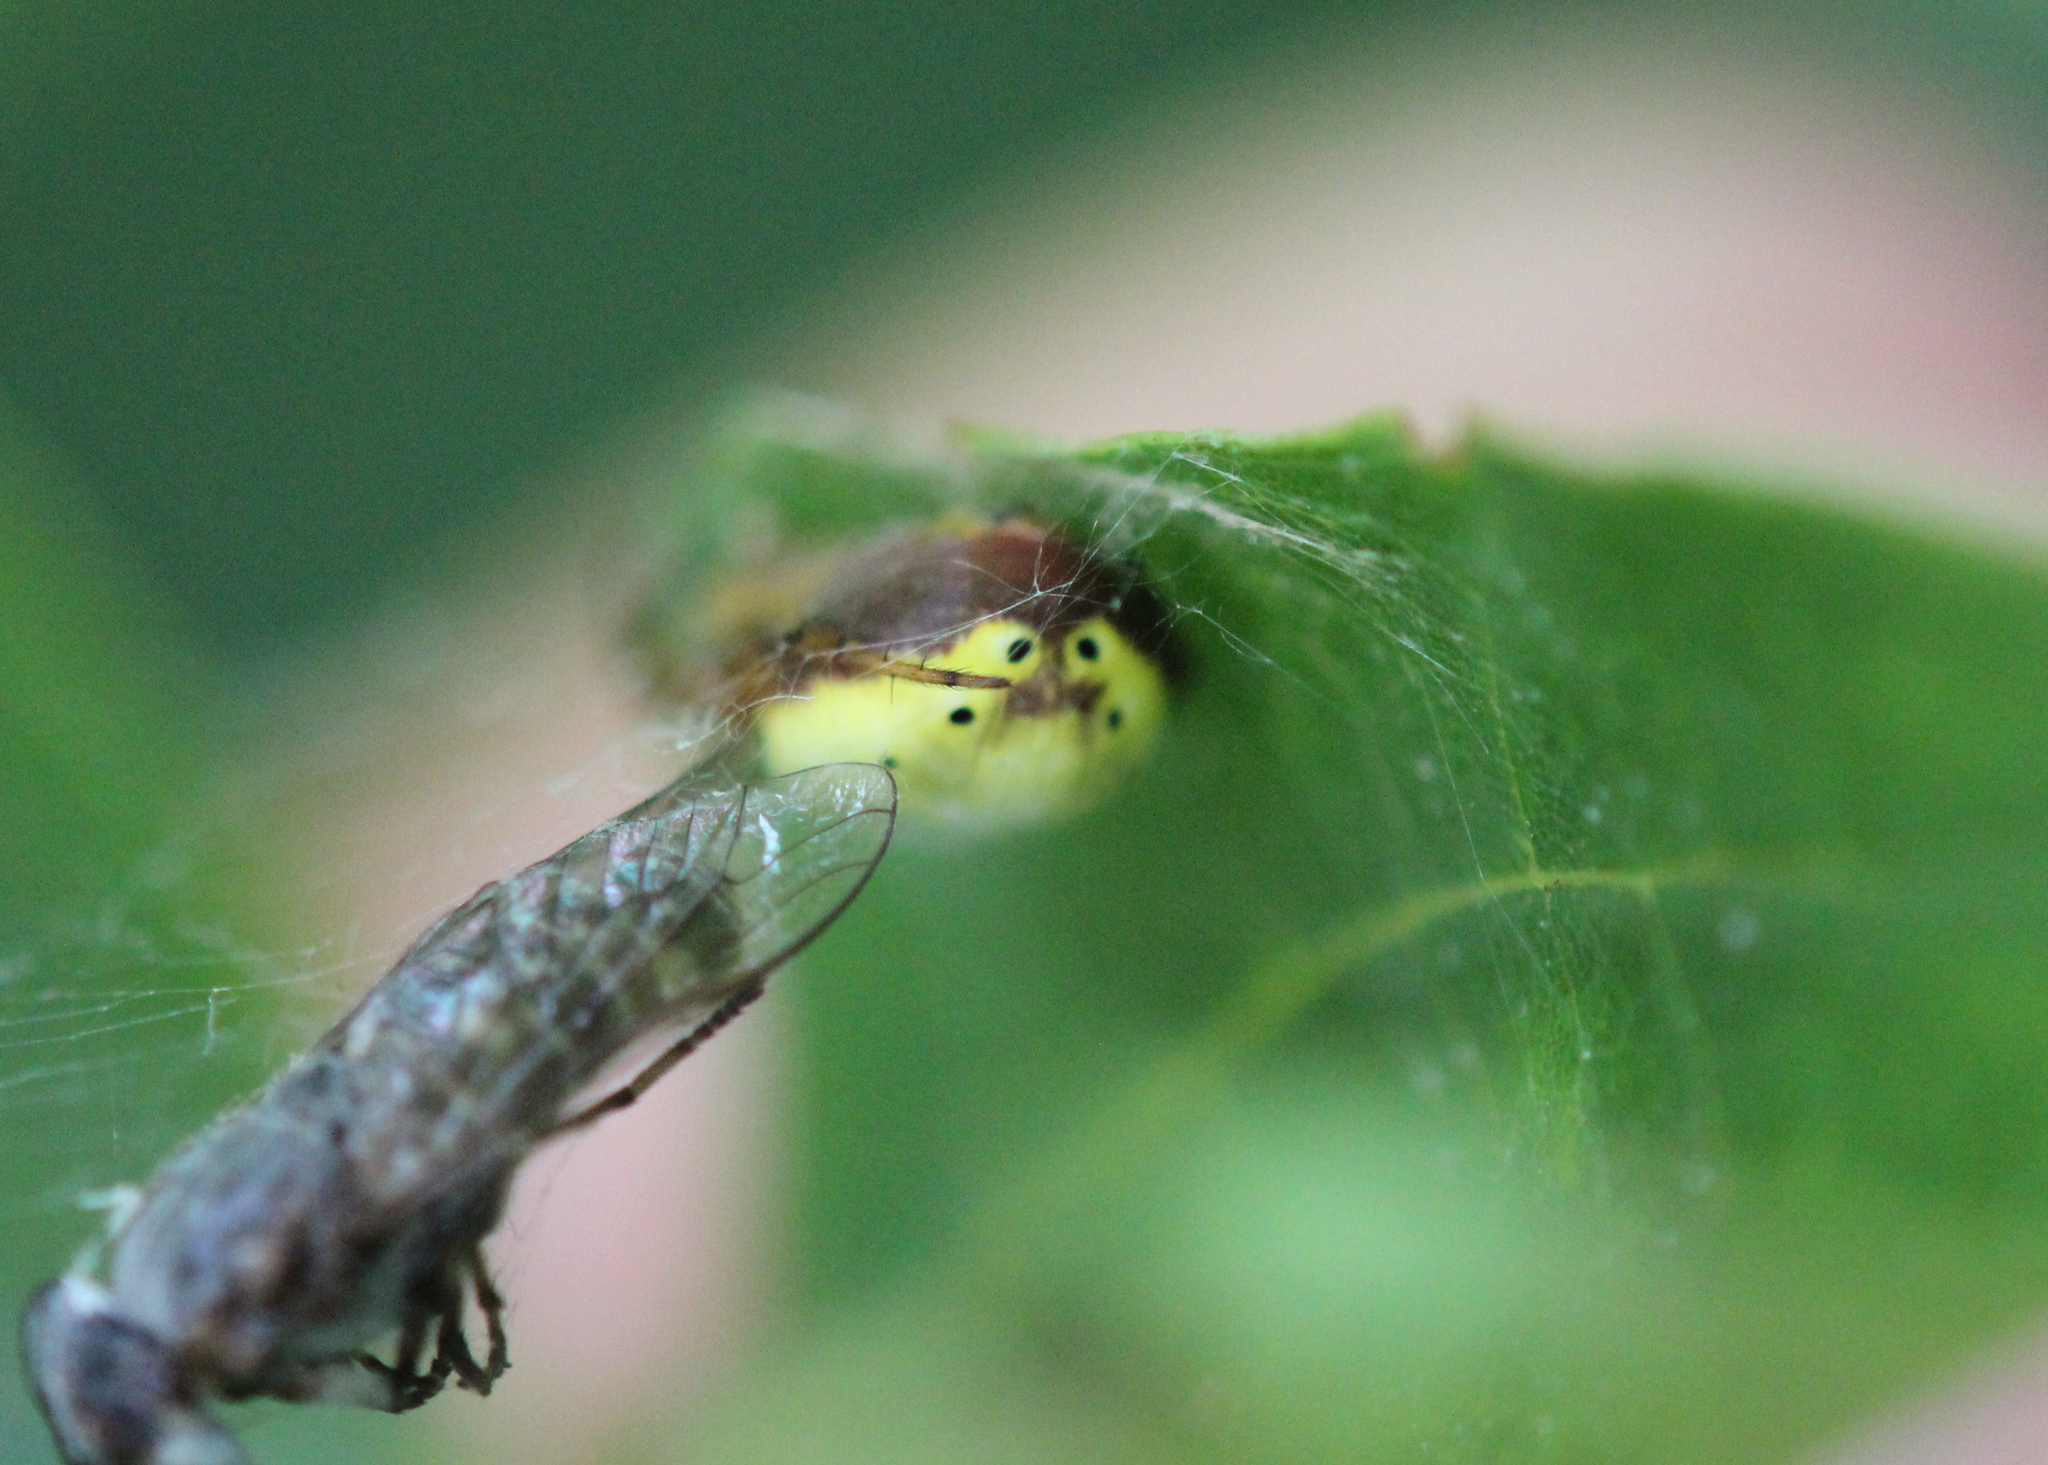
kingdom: Animalia
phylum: Arthropoda
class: Arachnida
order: Araneae
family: Araneidae
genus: Araniella
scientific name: Araniella displicata
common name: Sixspotted orb weaver
